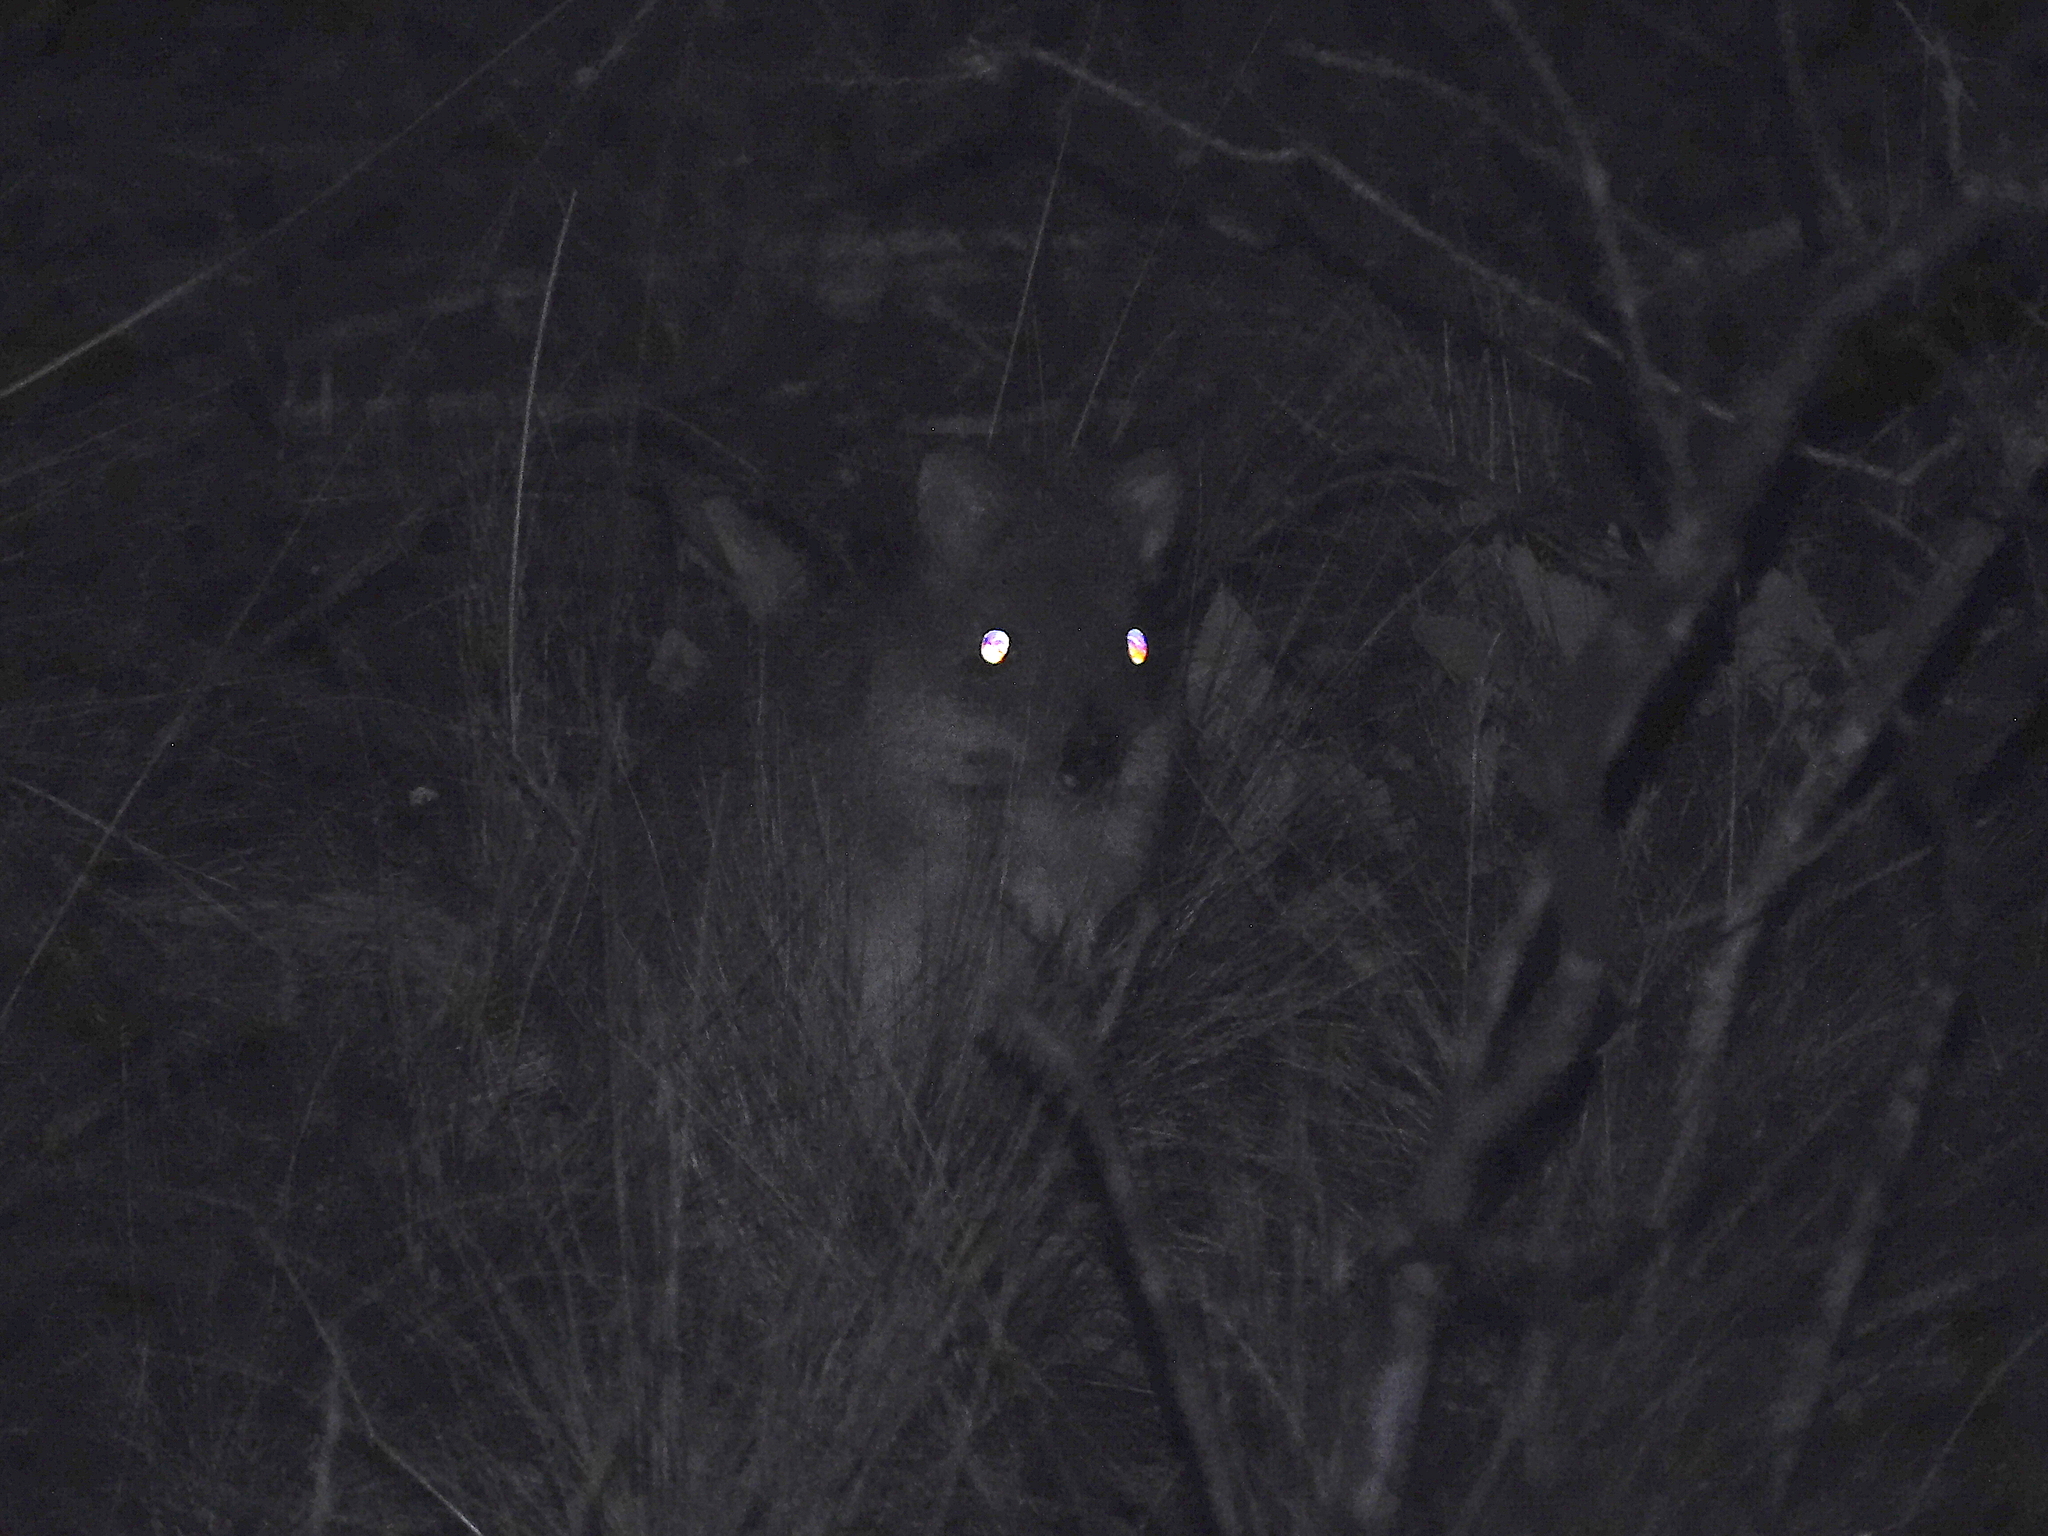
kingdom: Animalia
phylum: Chordata
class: Mammalia
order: Diprotodontia
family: Potoroidae
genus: Bettongia
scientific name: Bettongia gaimardi
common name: Eastern bettong
